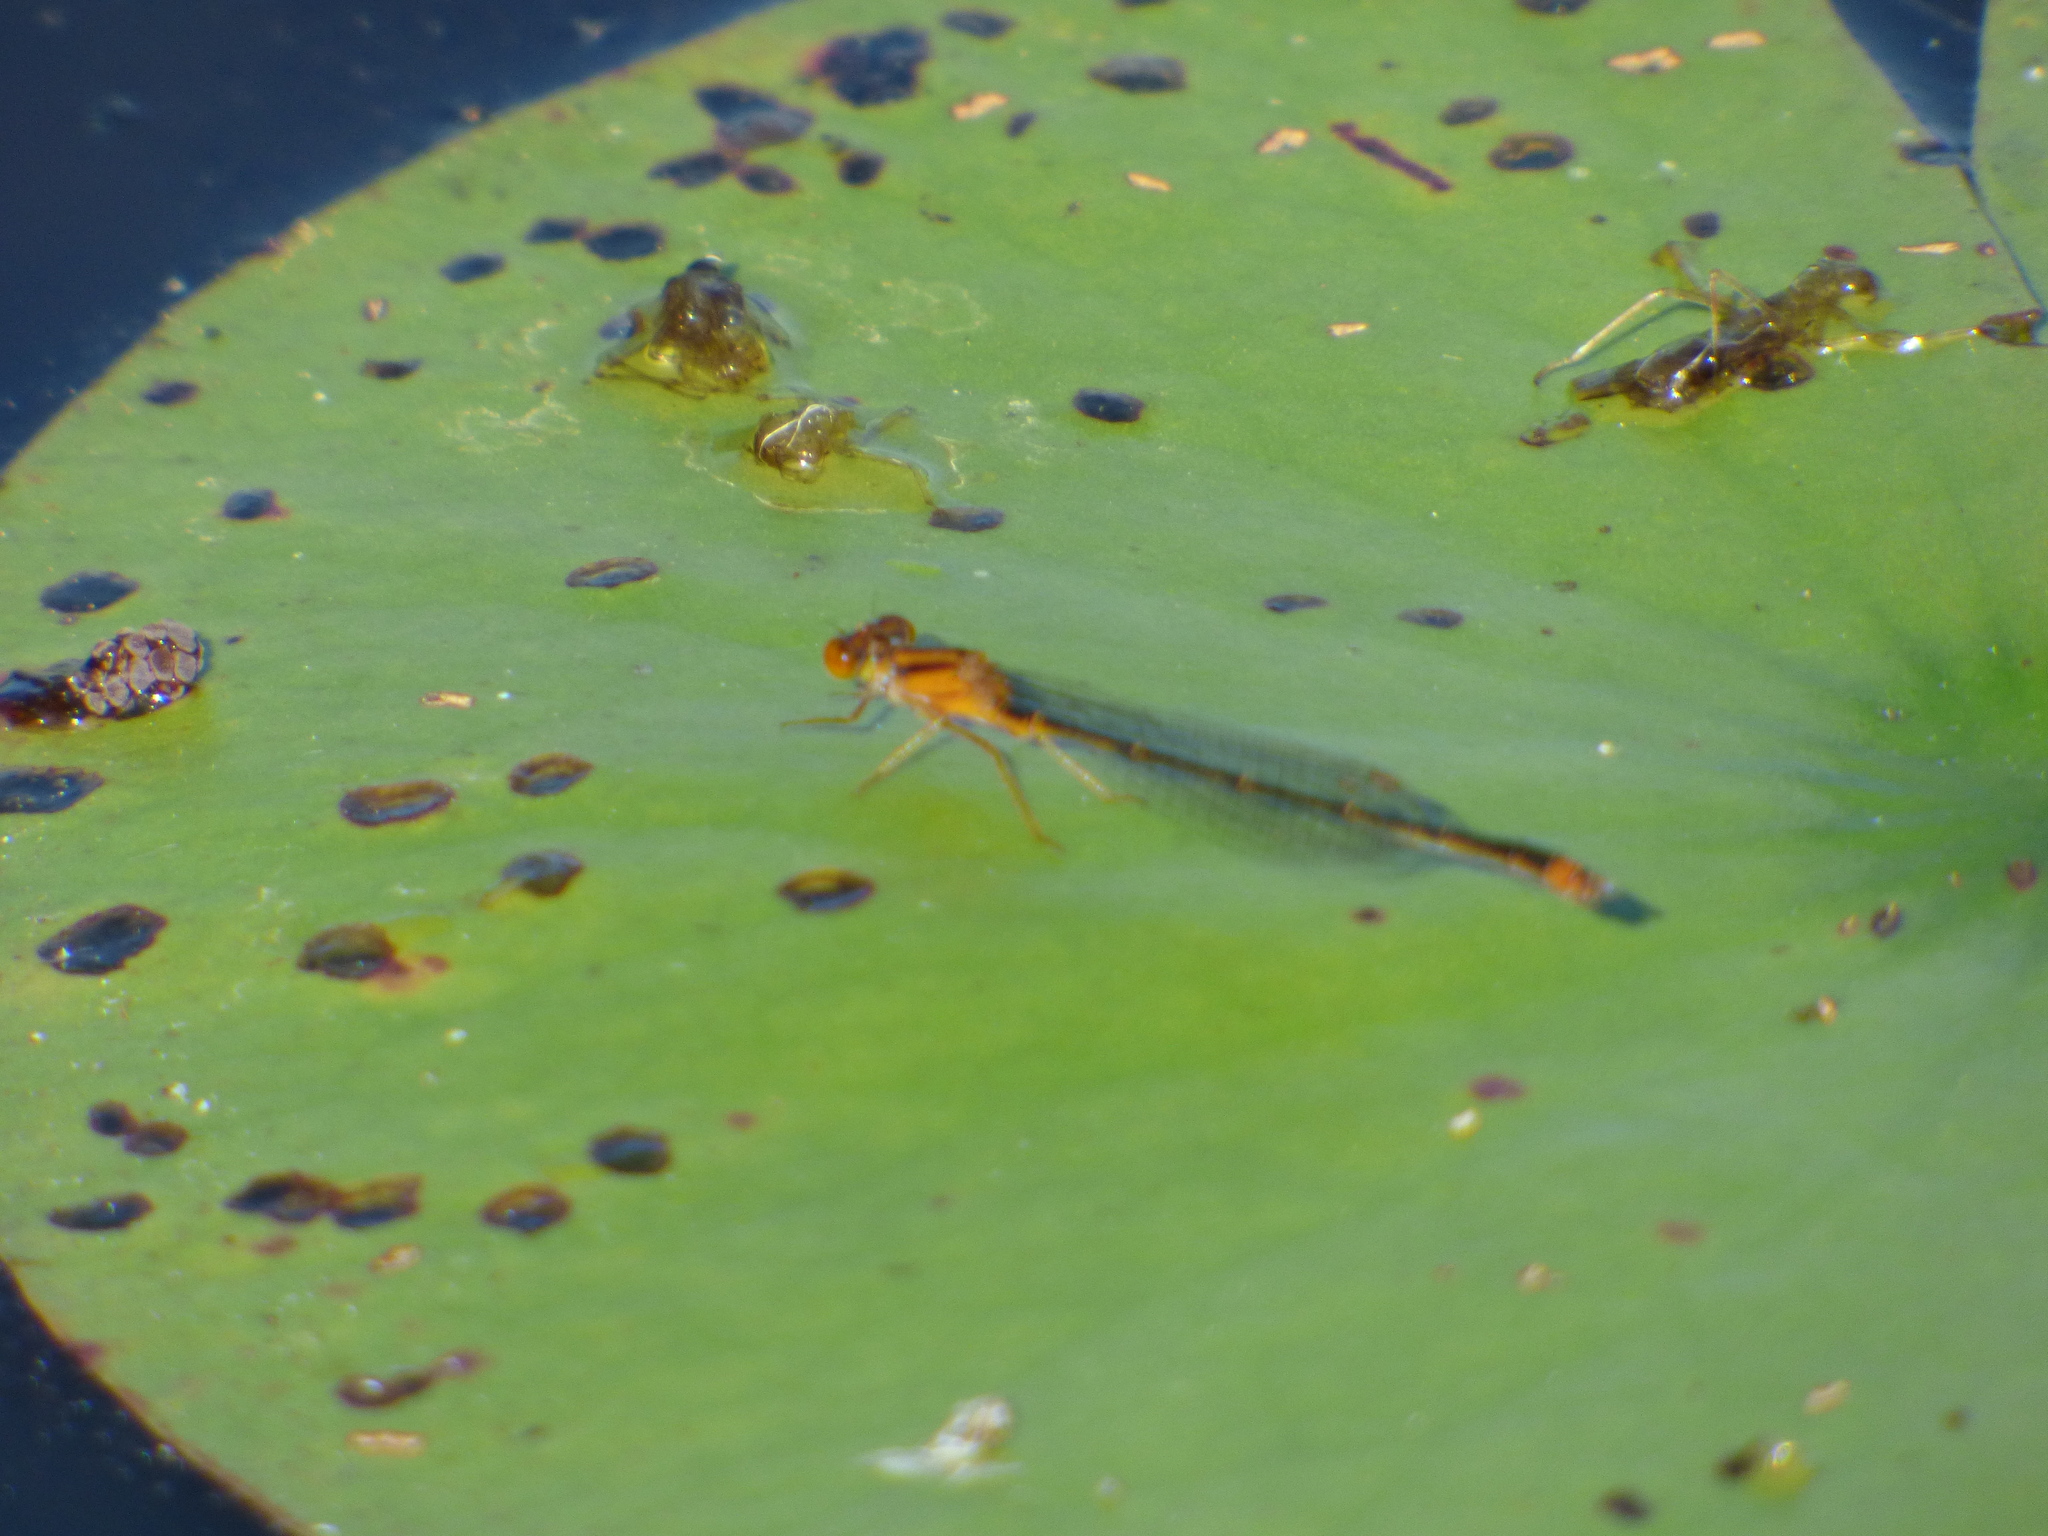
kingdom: Animalia
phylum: Arthropoda
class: Insecta
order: Odonata
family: Coenagrionidae
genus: Enallagma
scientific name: Enallagma signatum
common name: Orange bluet
